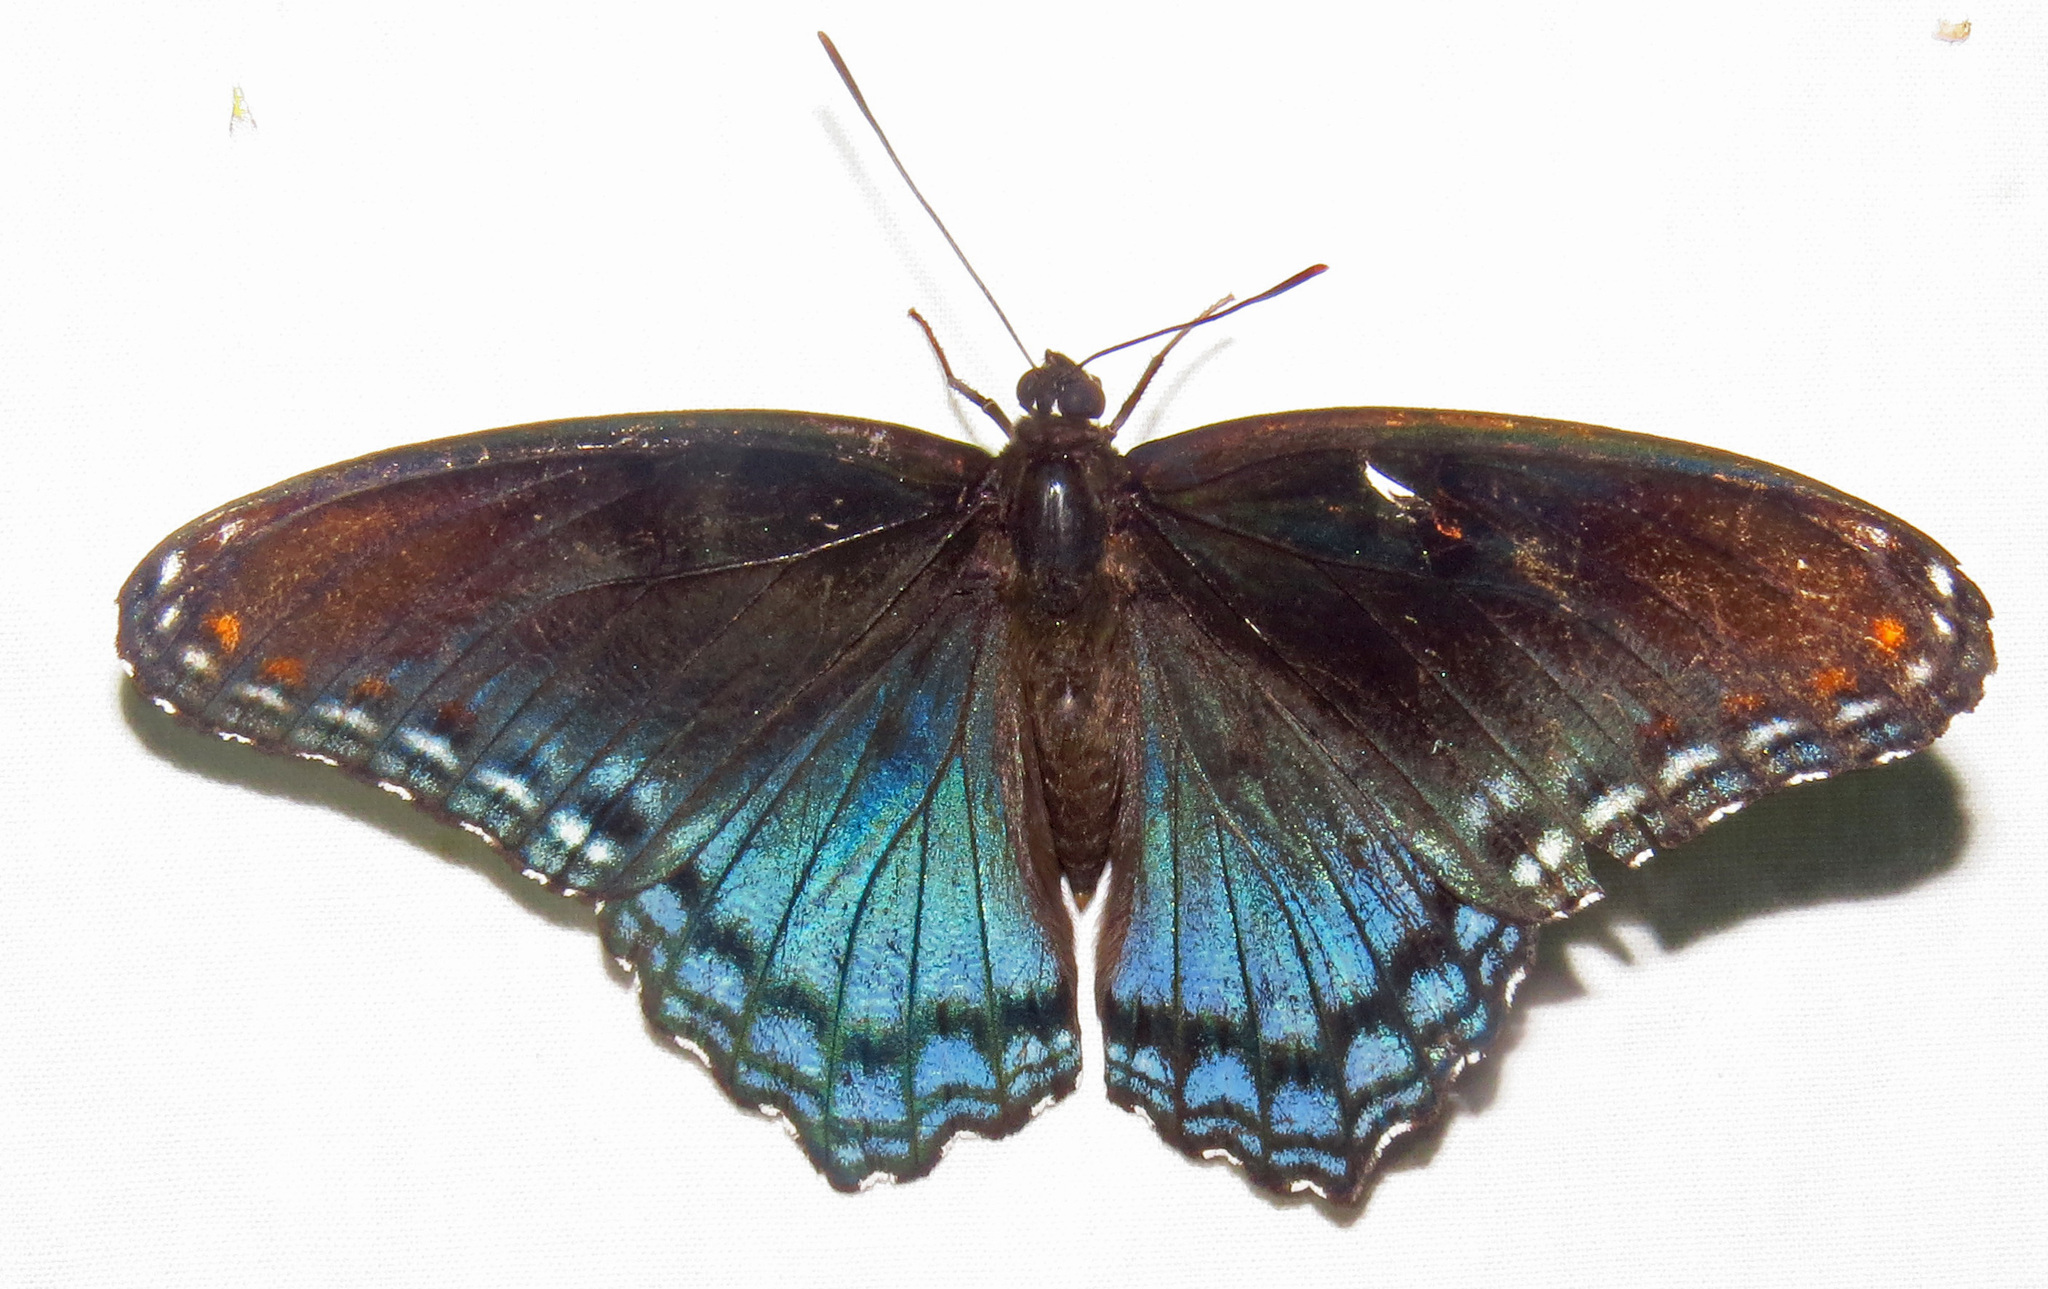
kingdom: Animalia
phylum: Arthropoda
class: Insecta
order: Lepidoptera
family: Nymphalidae
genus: Limenitis
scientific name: Limenitis astyanax
